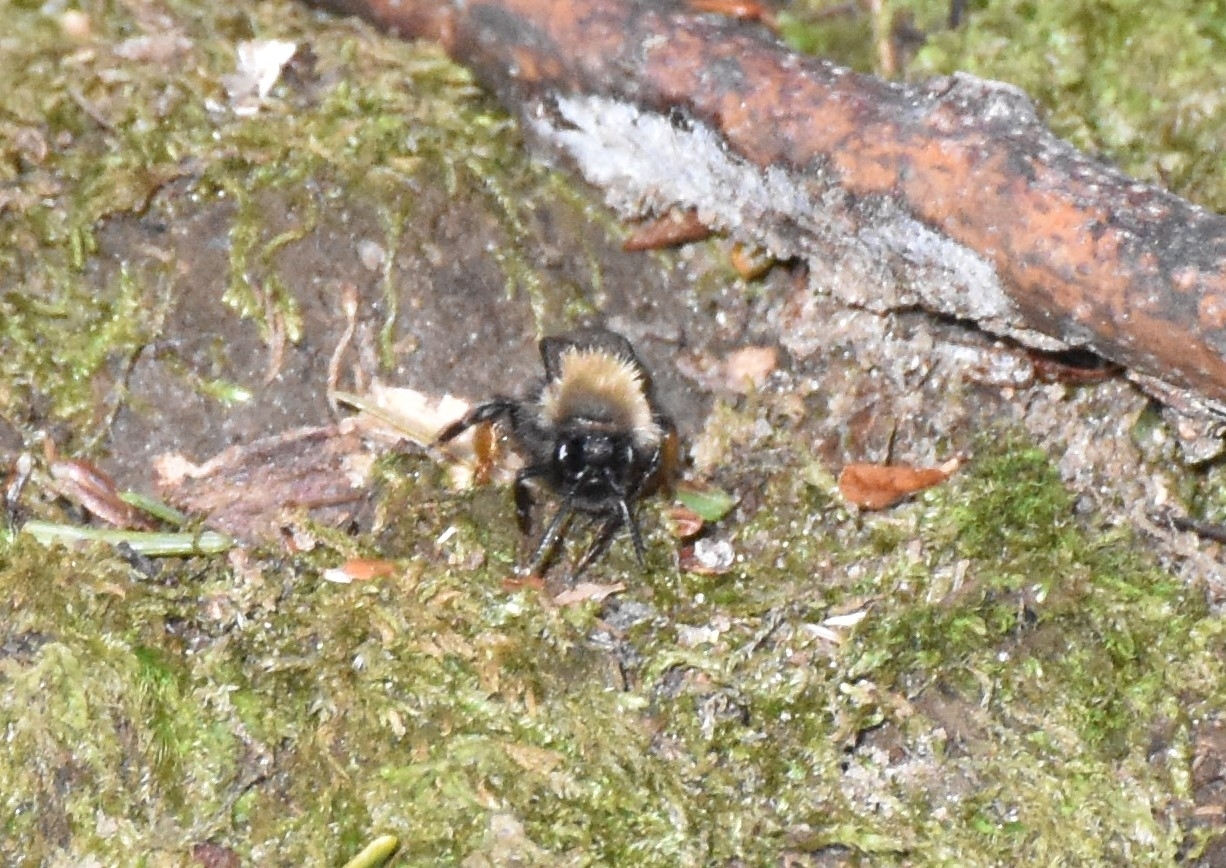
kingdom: Animalia
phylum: Arthropoda
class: Insecta
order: Hymenoptera
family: Andrenidae
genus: Andrena
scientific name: Andrena clarkella
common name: Clarke's mining bee
